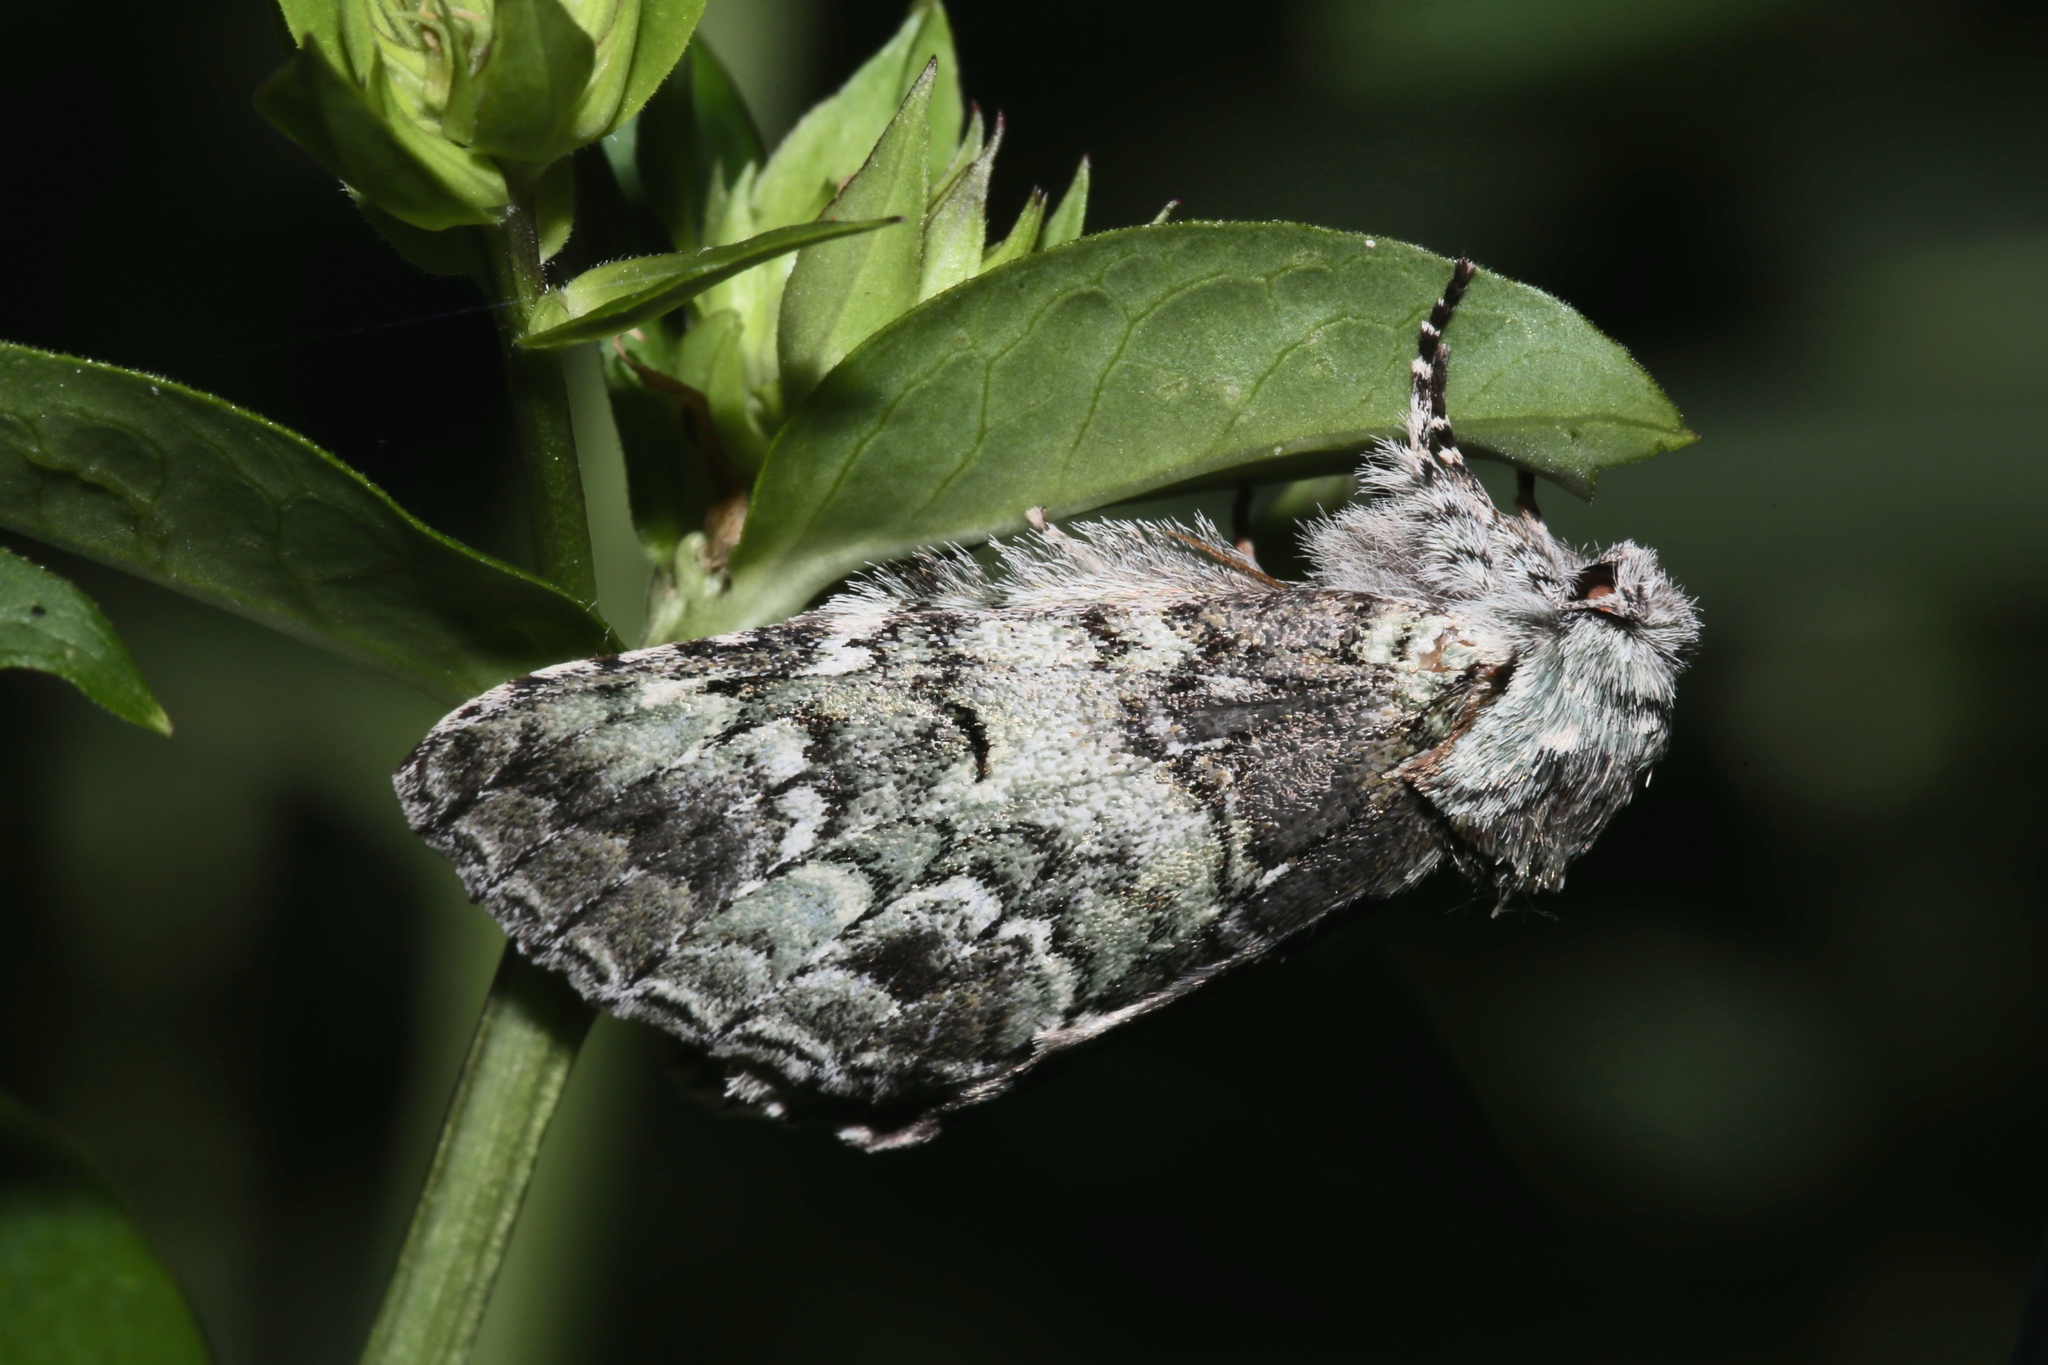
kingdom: Animalia
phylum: Arthropoda
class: Insecta
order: Lepidoptera
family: Notodontidae
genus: Macrurocampa
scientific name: Macrurocampa marthesia
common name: Mottled prominent
